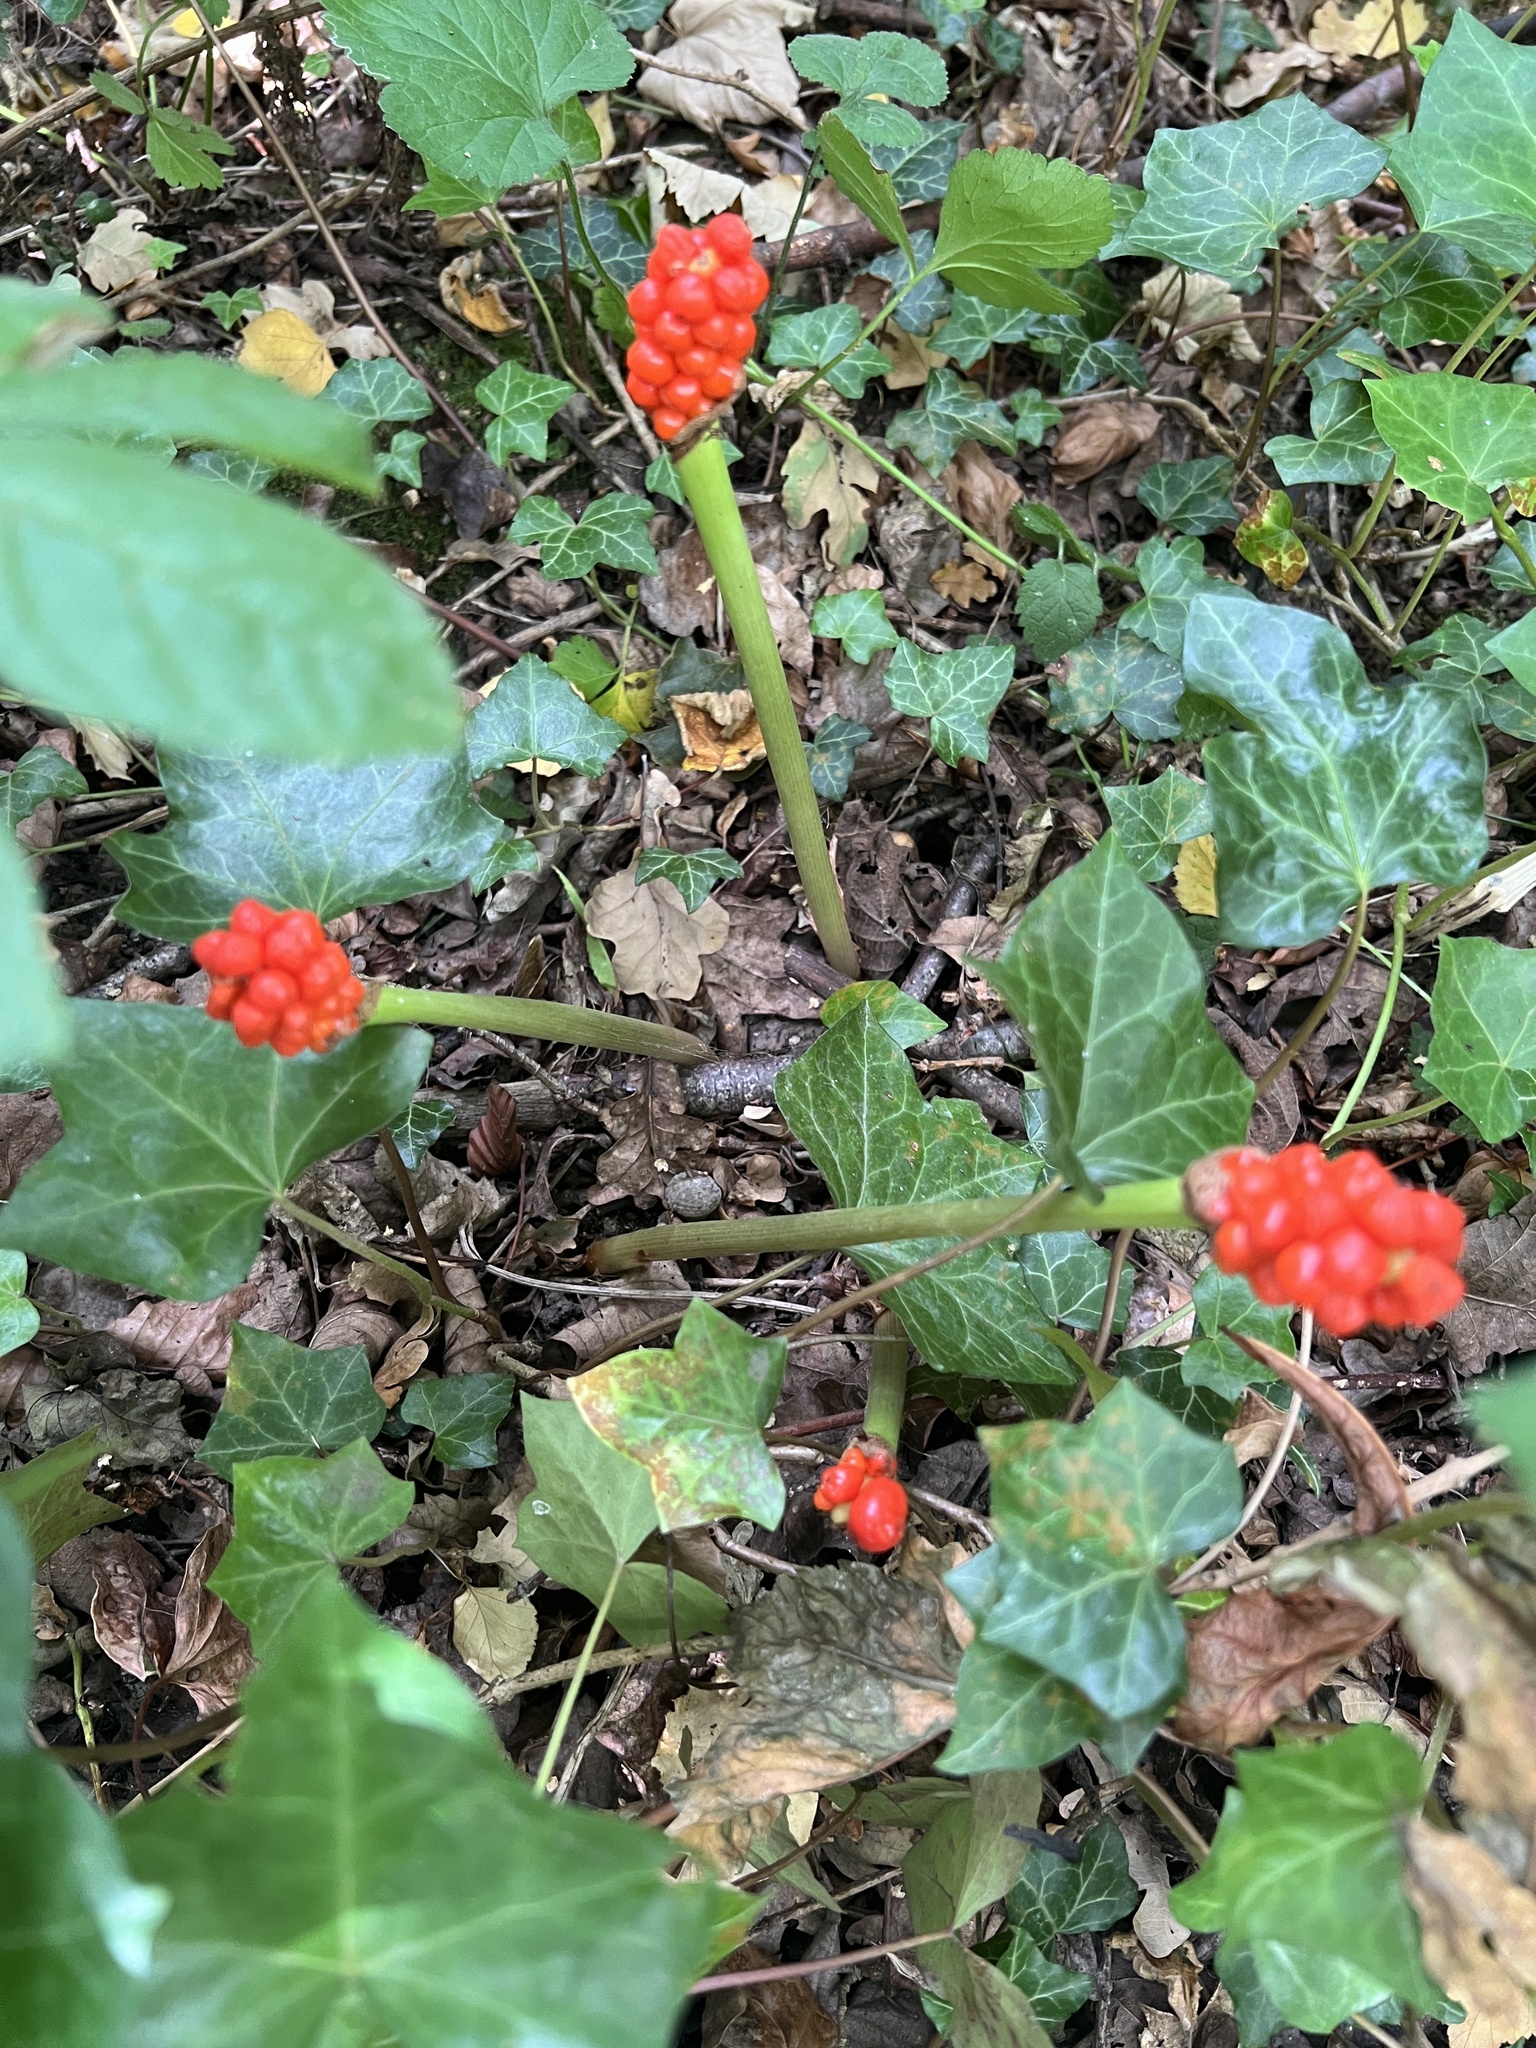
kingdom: Plantae
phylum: Tracheophyta
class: Liliopsida
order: Alismatales
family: Araceae
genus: Arum
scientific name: Arum maculatum
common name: Lords-and-ladies
